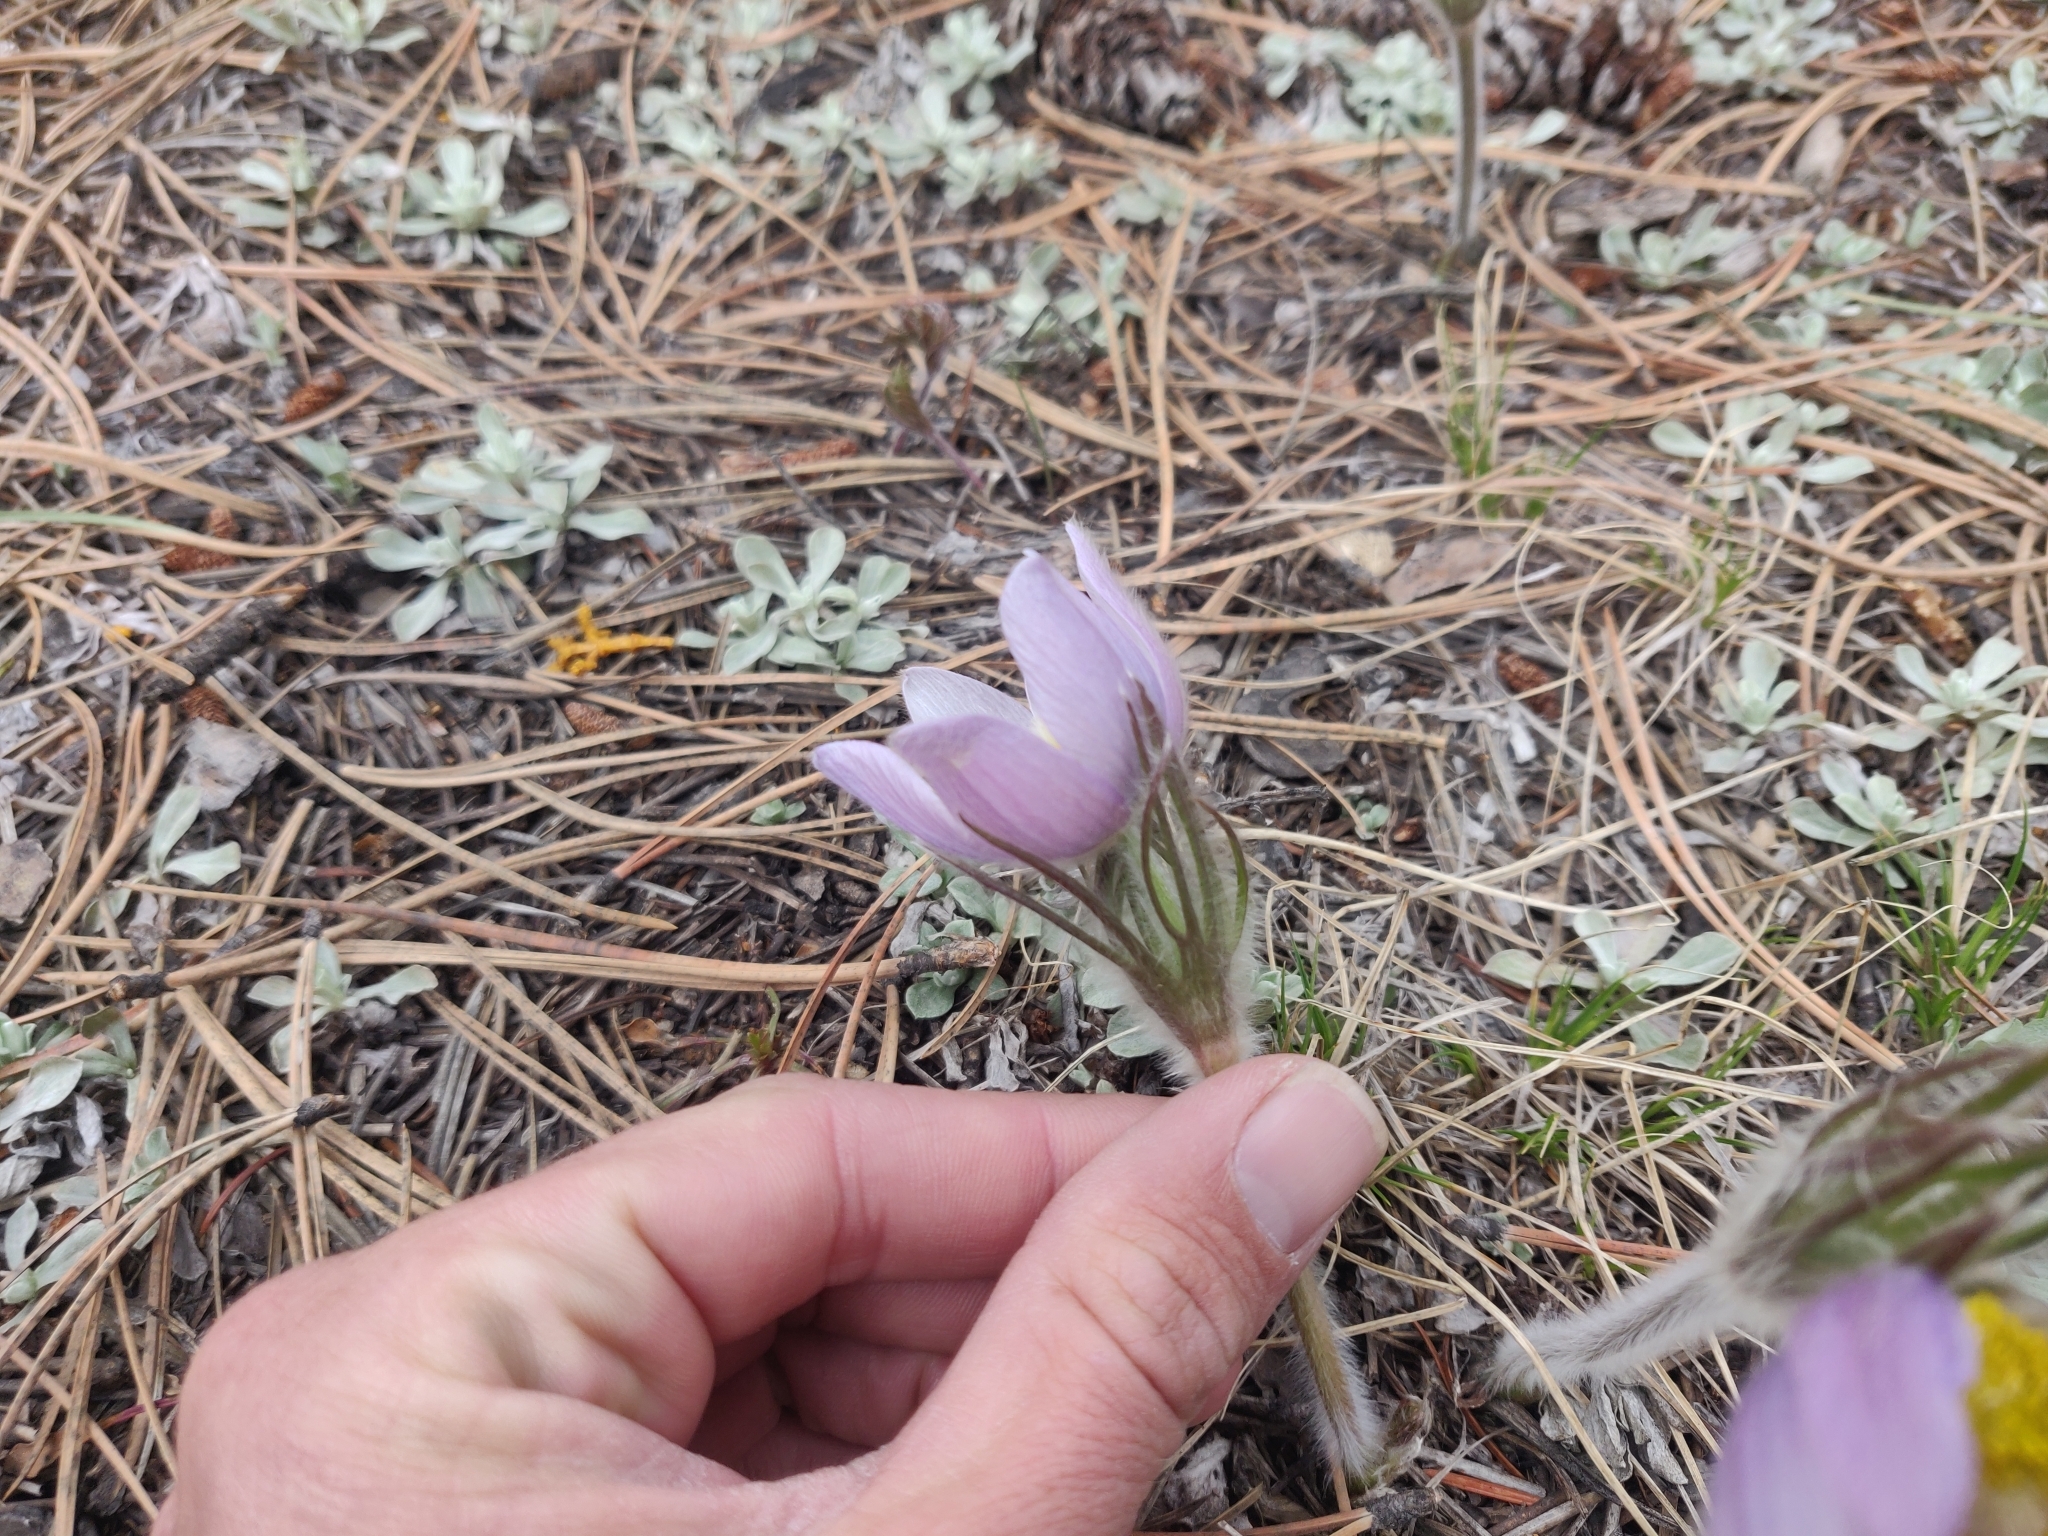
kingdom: Plantae
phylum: Tracheophyta
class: Magnoliopsida
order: Ranunculales
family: Ranunculaceae
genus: Pulsatilla
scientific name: Pulsatilla nuttalliana
